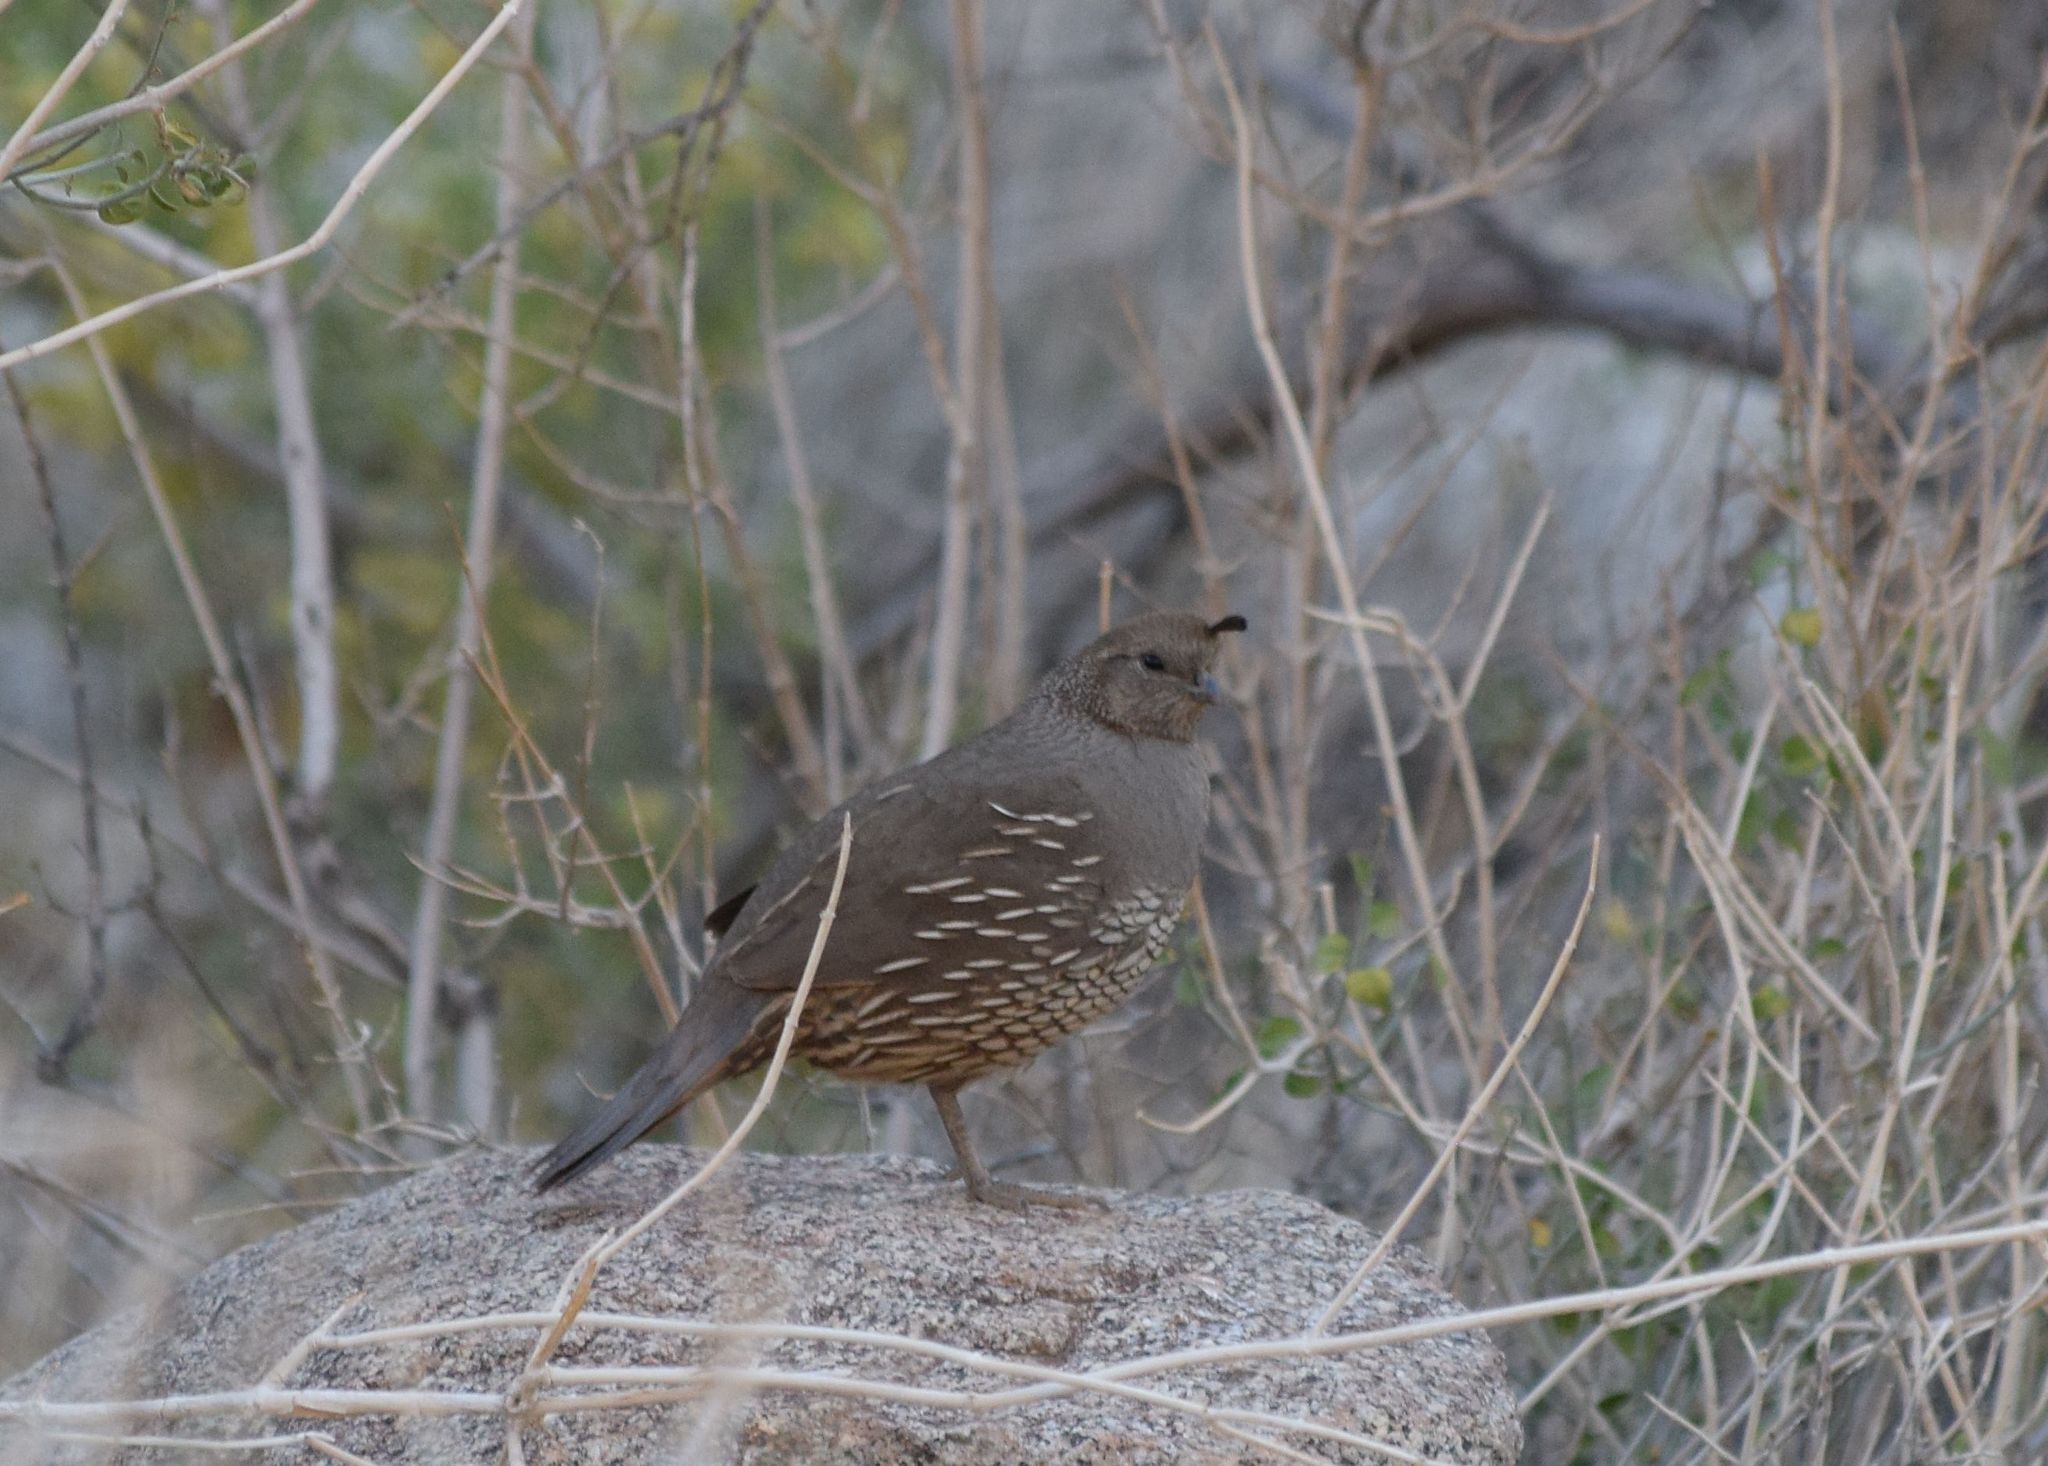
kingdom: Animalia
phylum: Chordata
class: Aves
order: Galliformes
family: Odontophoridae
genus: Callipepla
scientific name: Callipepla californica
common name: California quail
